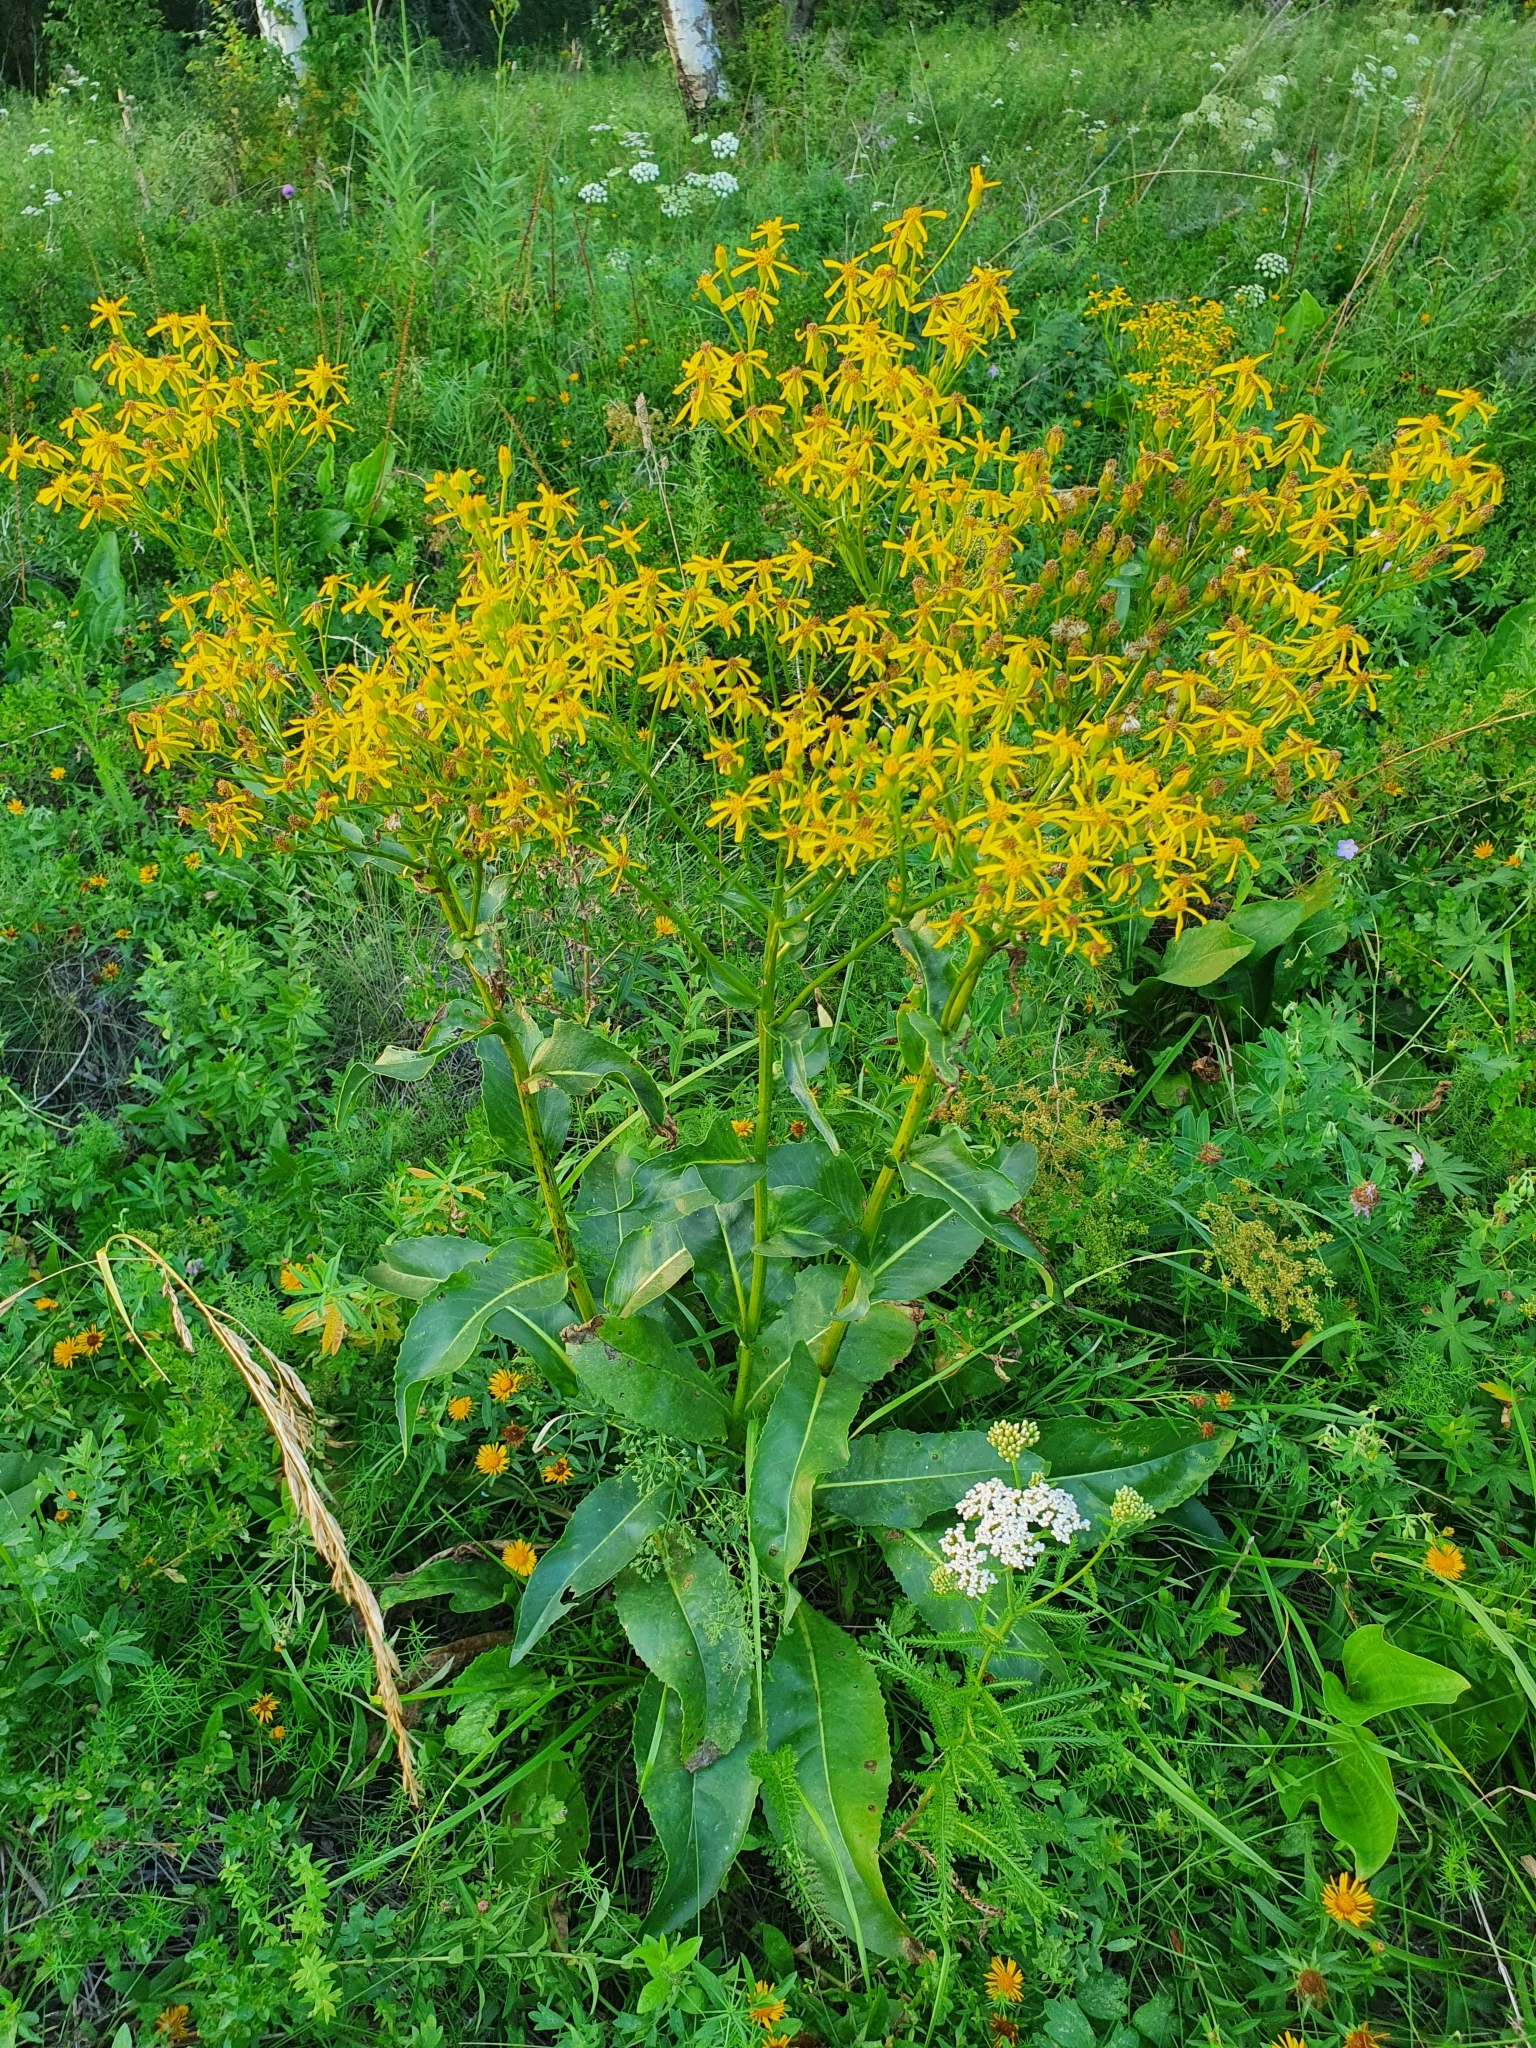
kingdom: Plantae
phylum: Tracheophyta
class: Magnoliopsida
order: Asterales
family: Asteraceae
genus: Senecio
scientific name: Senecio doria
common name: Golden ragwort
